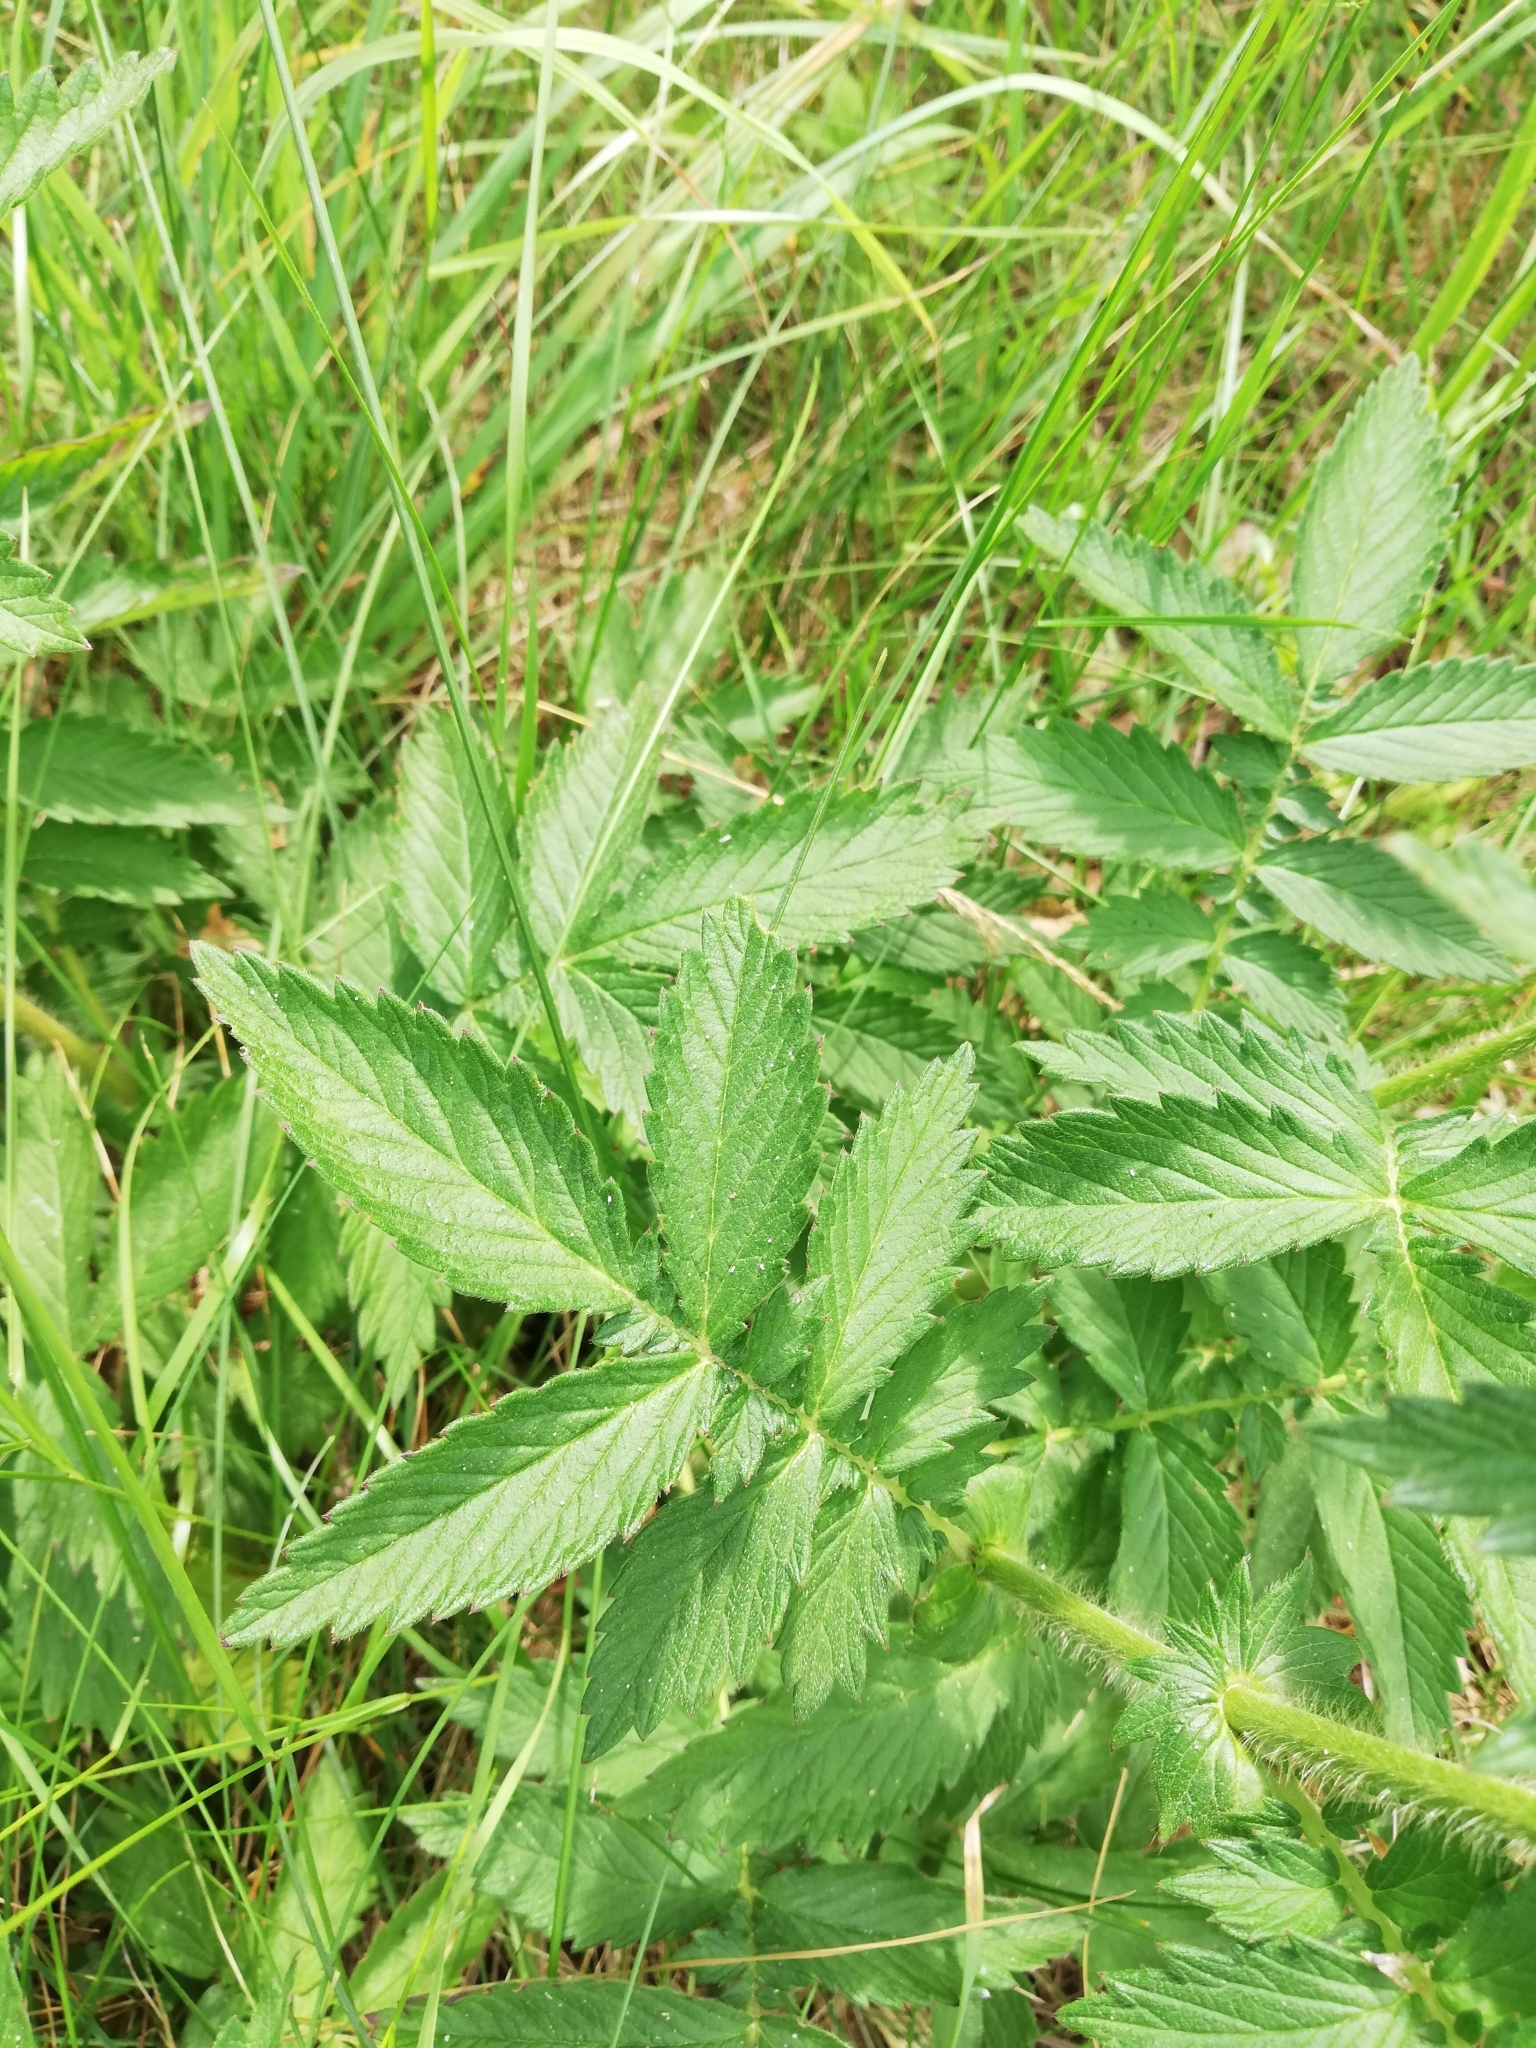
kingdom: Plantae
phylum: Tracheophyta
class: Magnoliopsida
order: Rosales
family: Rosaceae
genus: Agrimonia
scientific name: Agrimonia eupatoria
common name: Agrimony
